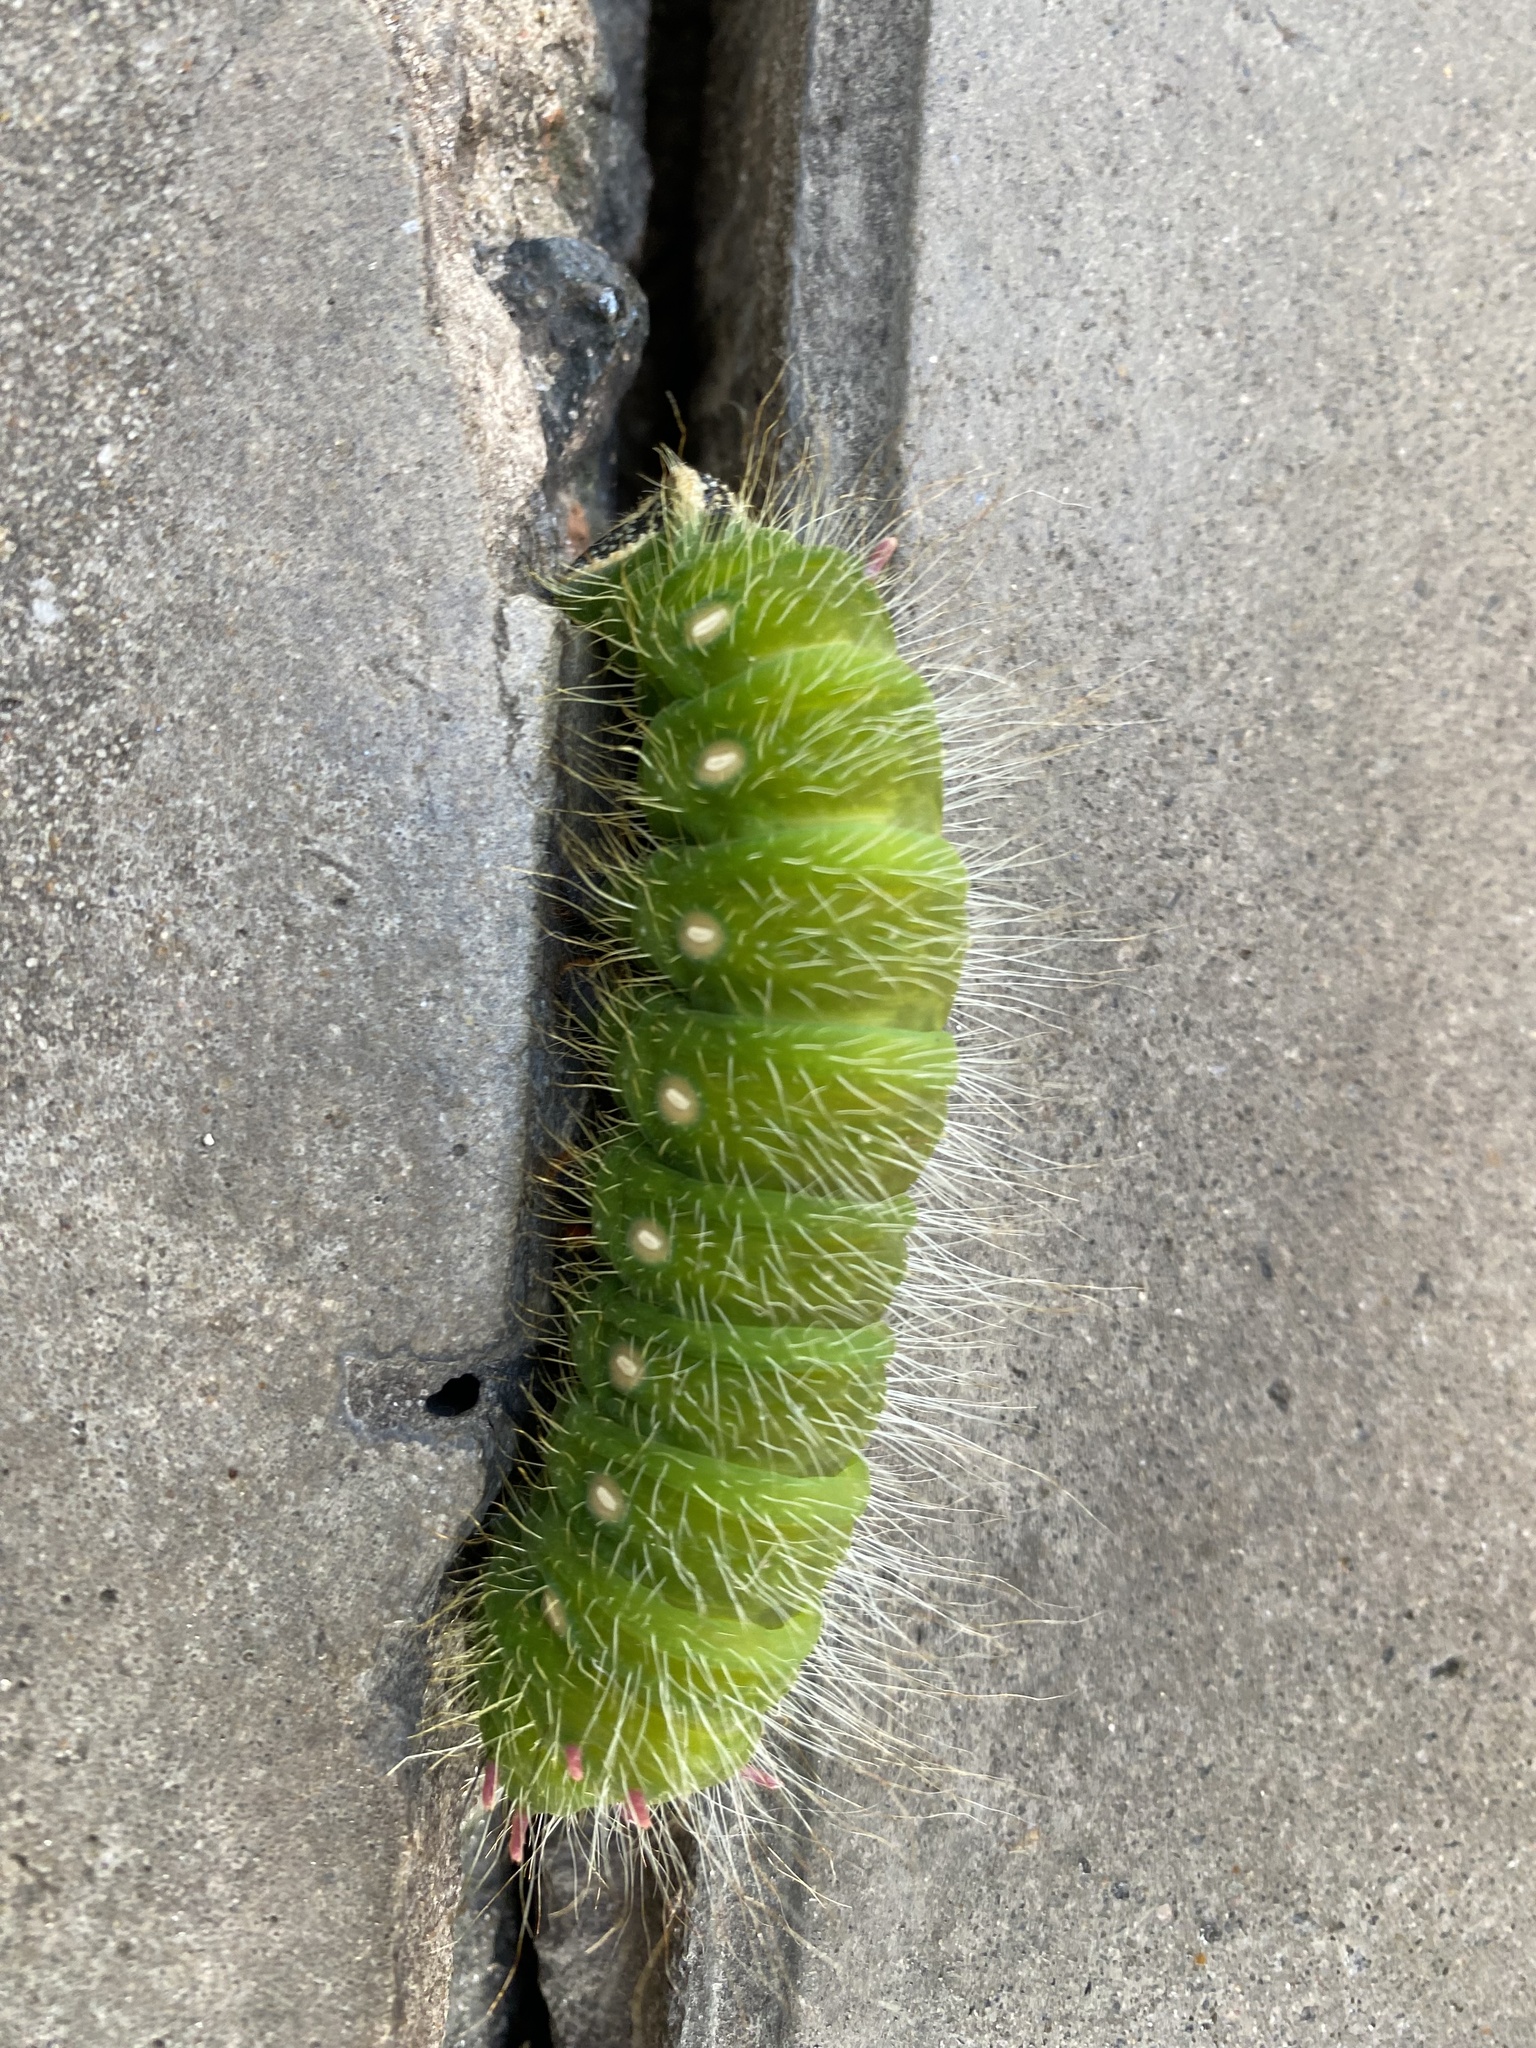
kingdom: Animalia
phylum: Arthropoda
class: Insecta
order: Lepidoptera
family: Saturniidae
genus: Eacles
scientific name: Eacles imperialis
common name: Imperial moth
